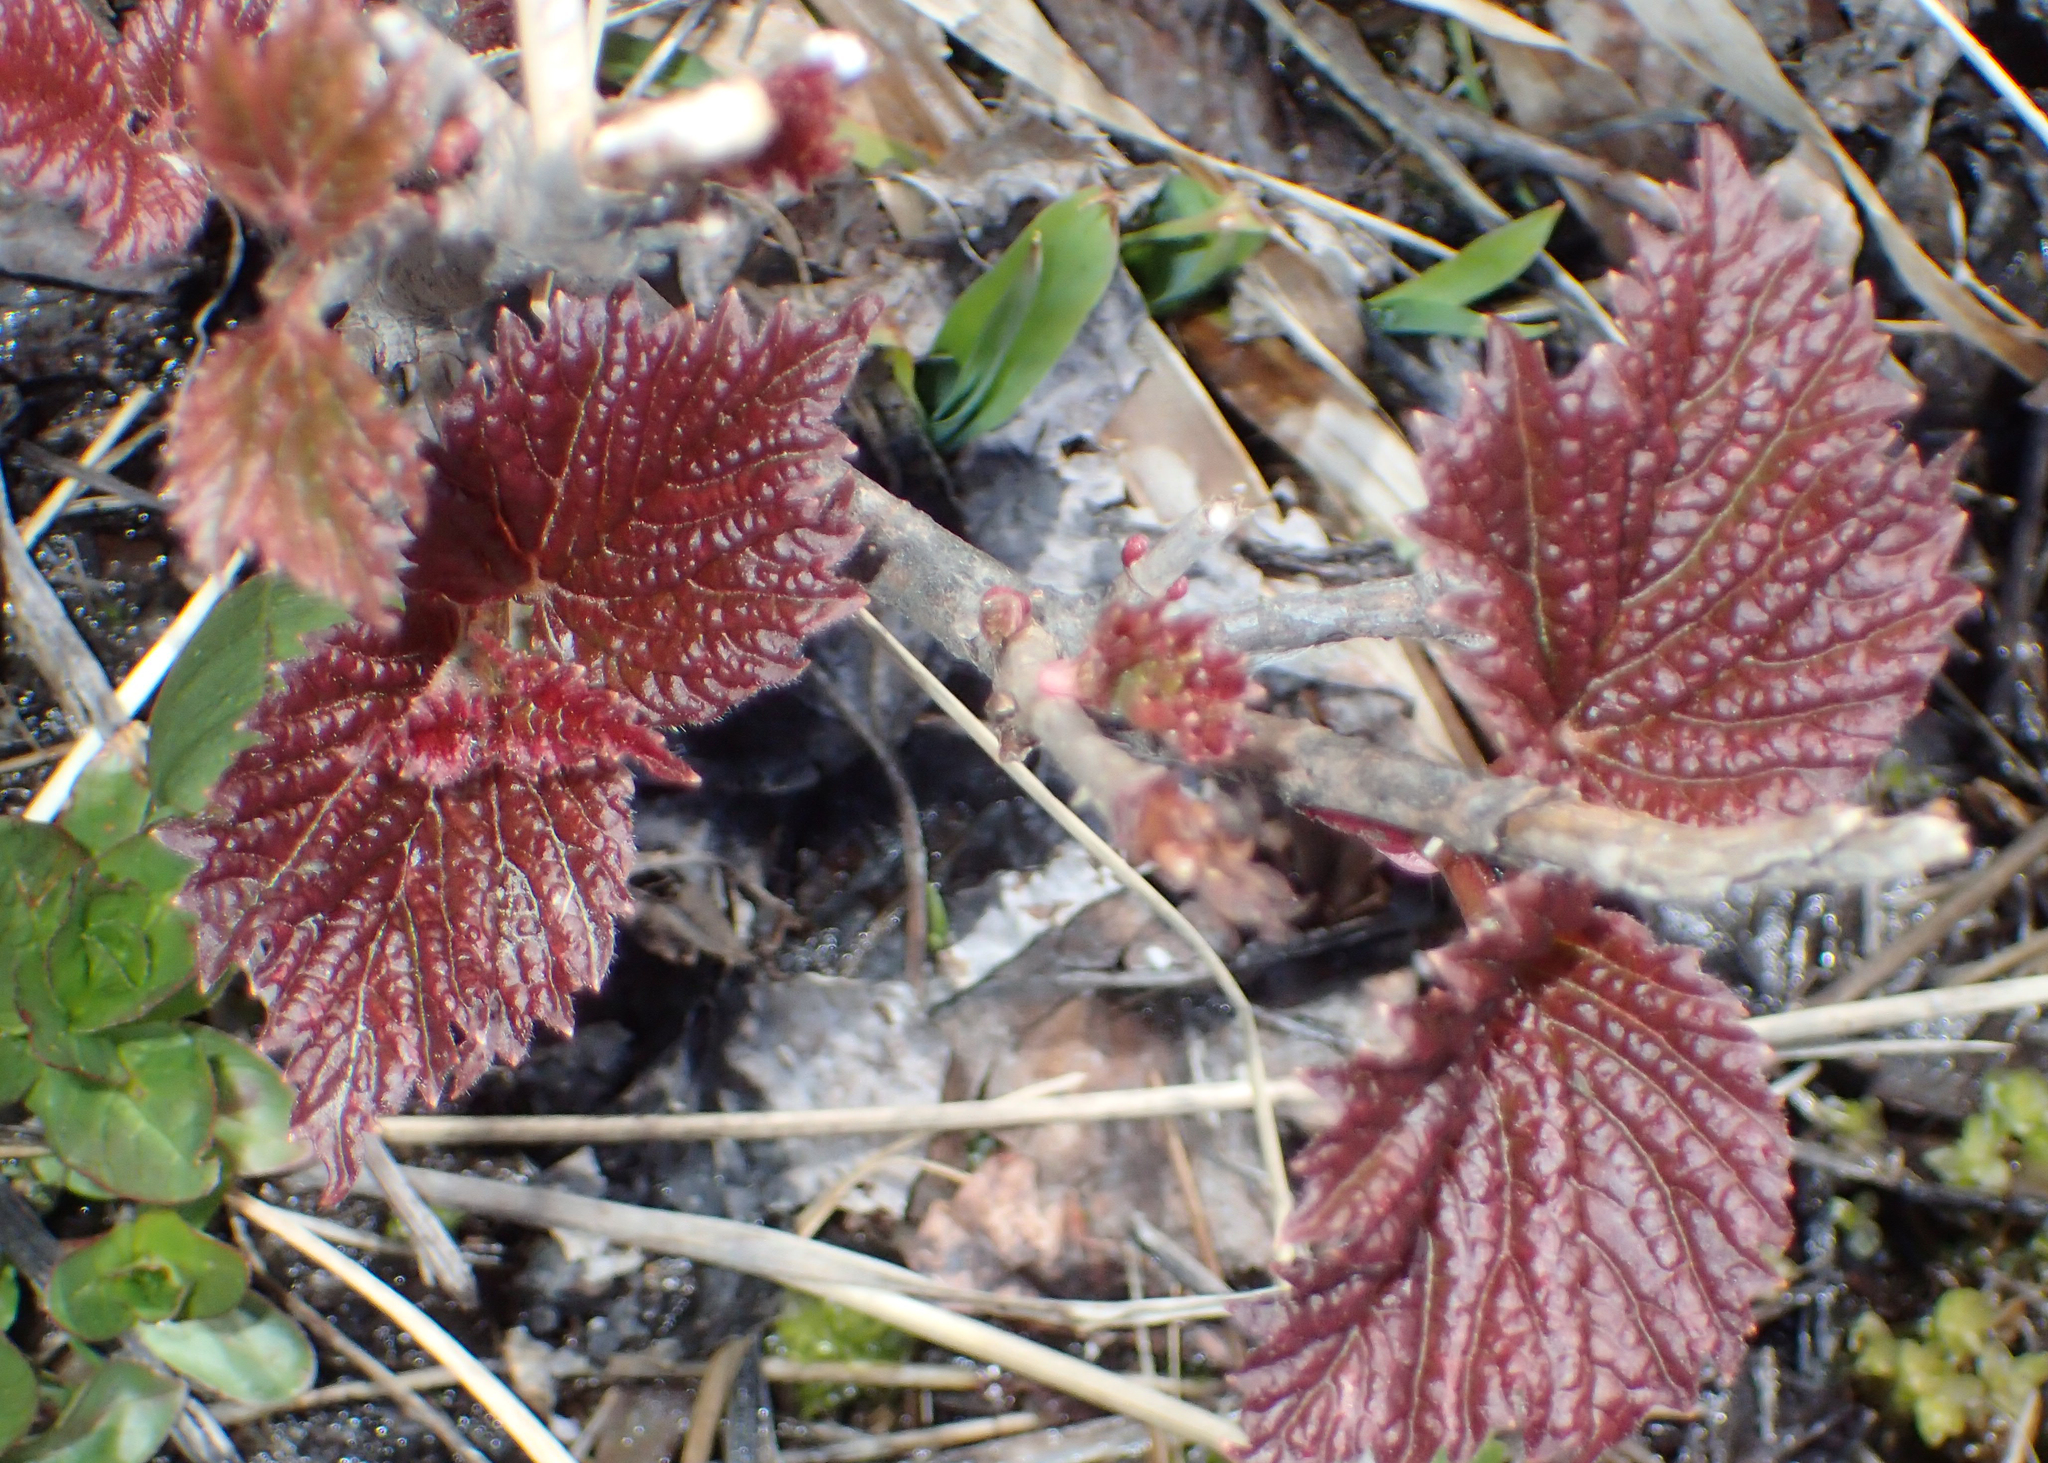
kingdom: Plantae
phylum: Tracheophyta
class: Magnoliopsida
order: Dipsacales
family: Viburnaceae
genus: Viburnum
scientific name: Viburnum edule
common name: Mooseberry
